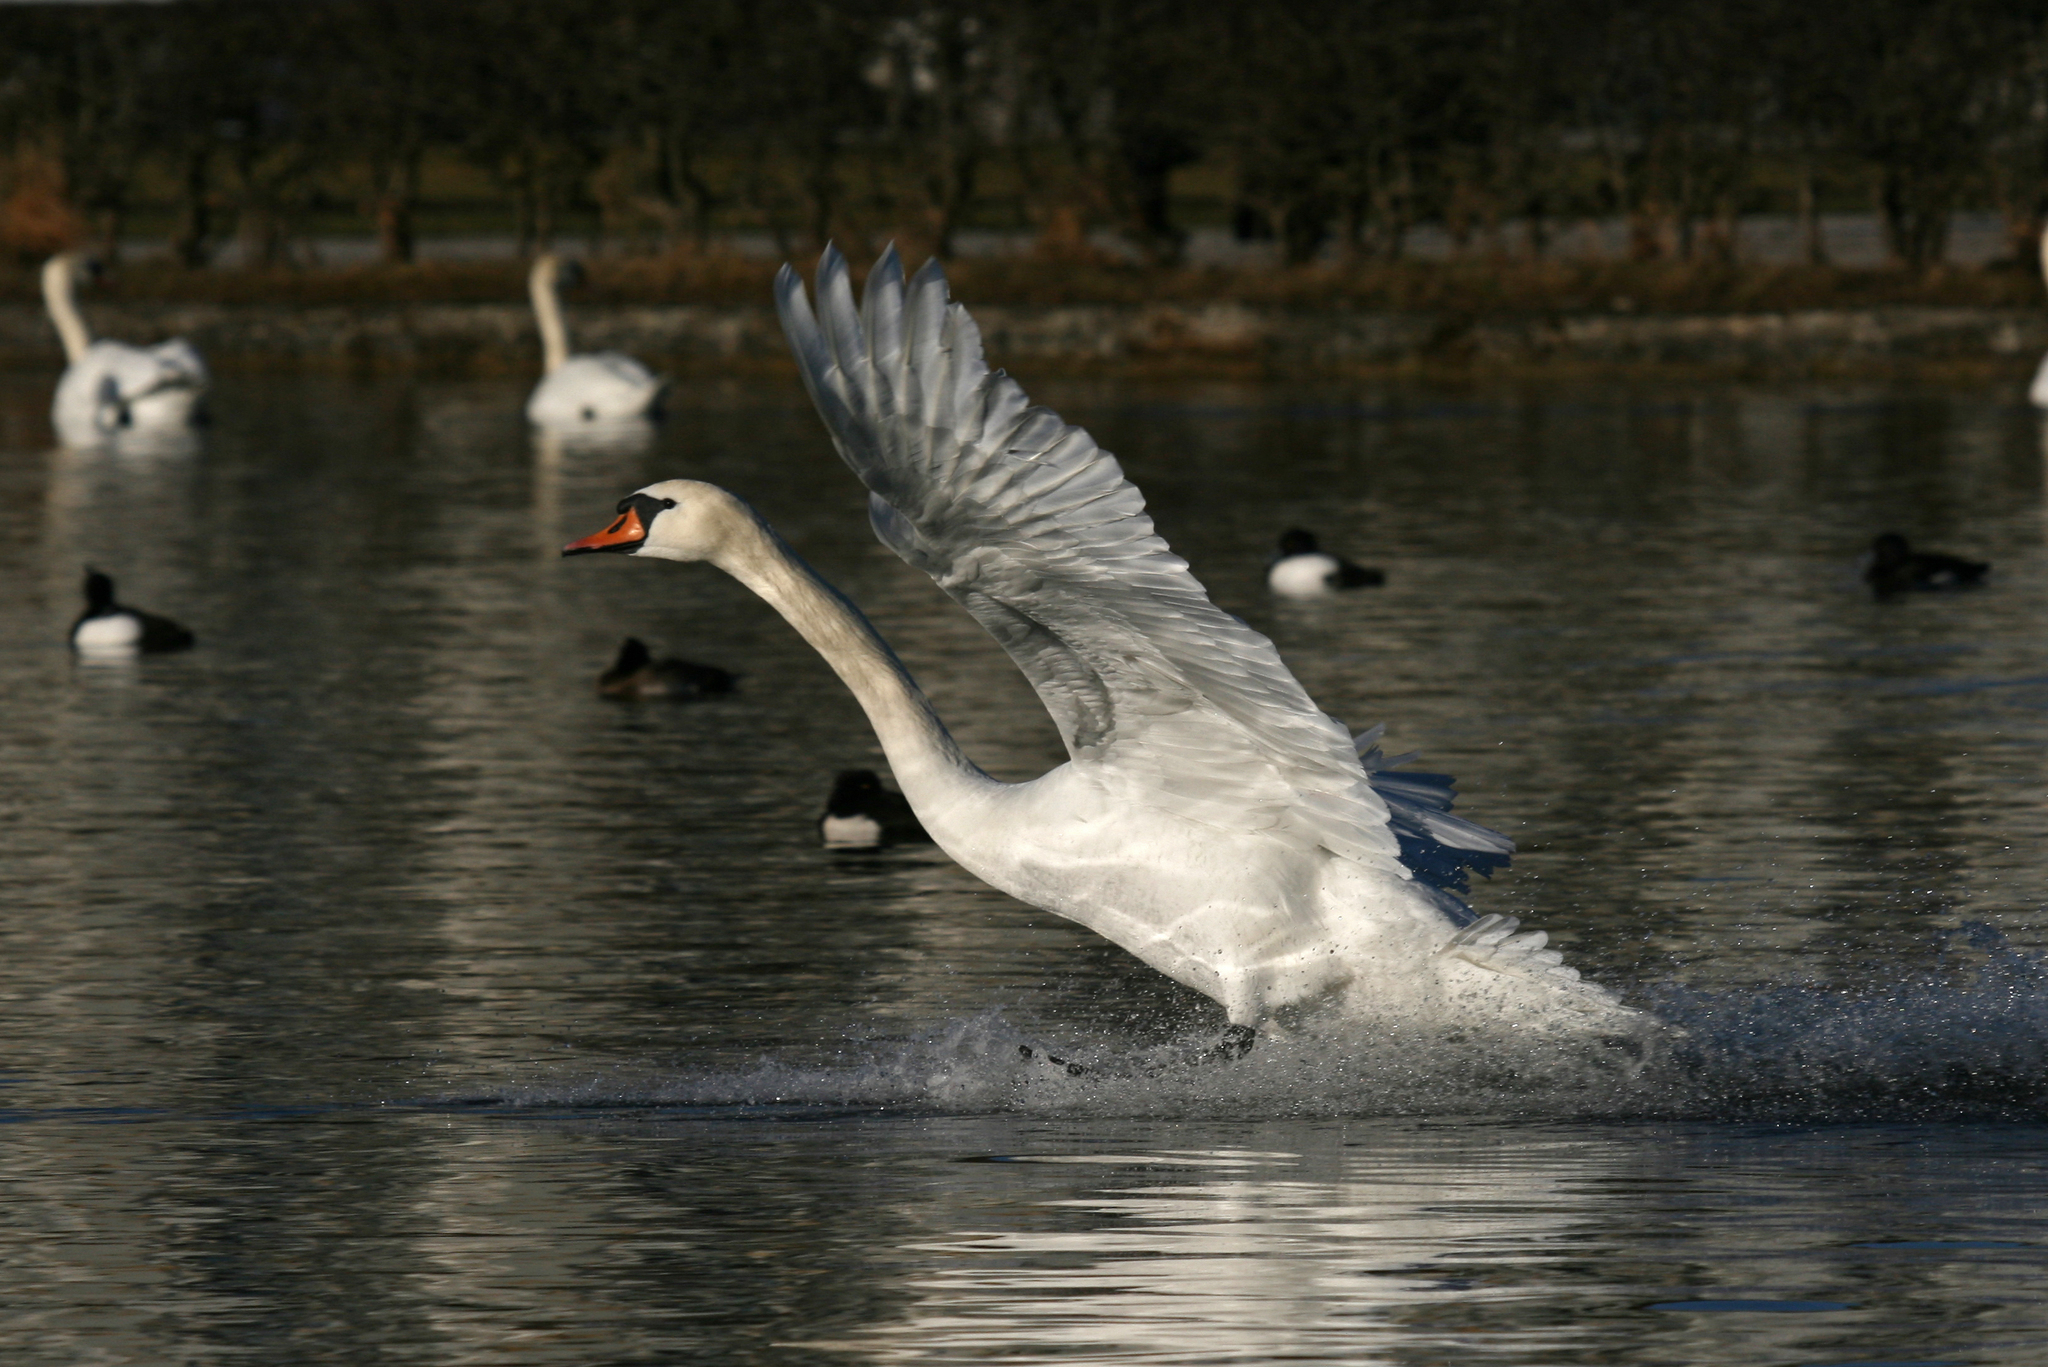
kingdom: Animalia
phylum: Chordata
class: Aves
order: Anseriformes
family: Anatidae
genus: Cygnus
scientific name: Cygnus olor
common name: Mute swan
